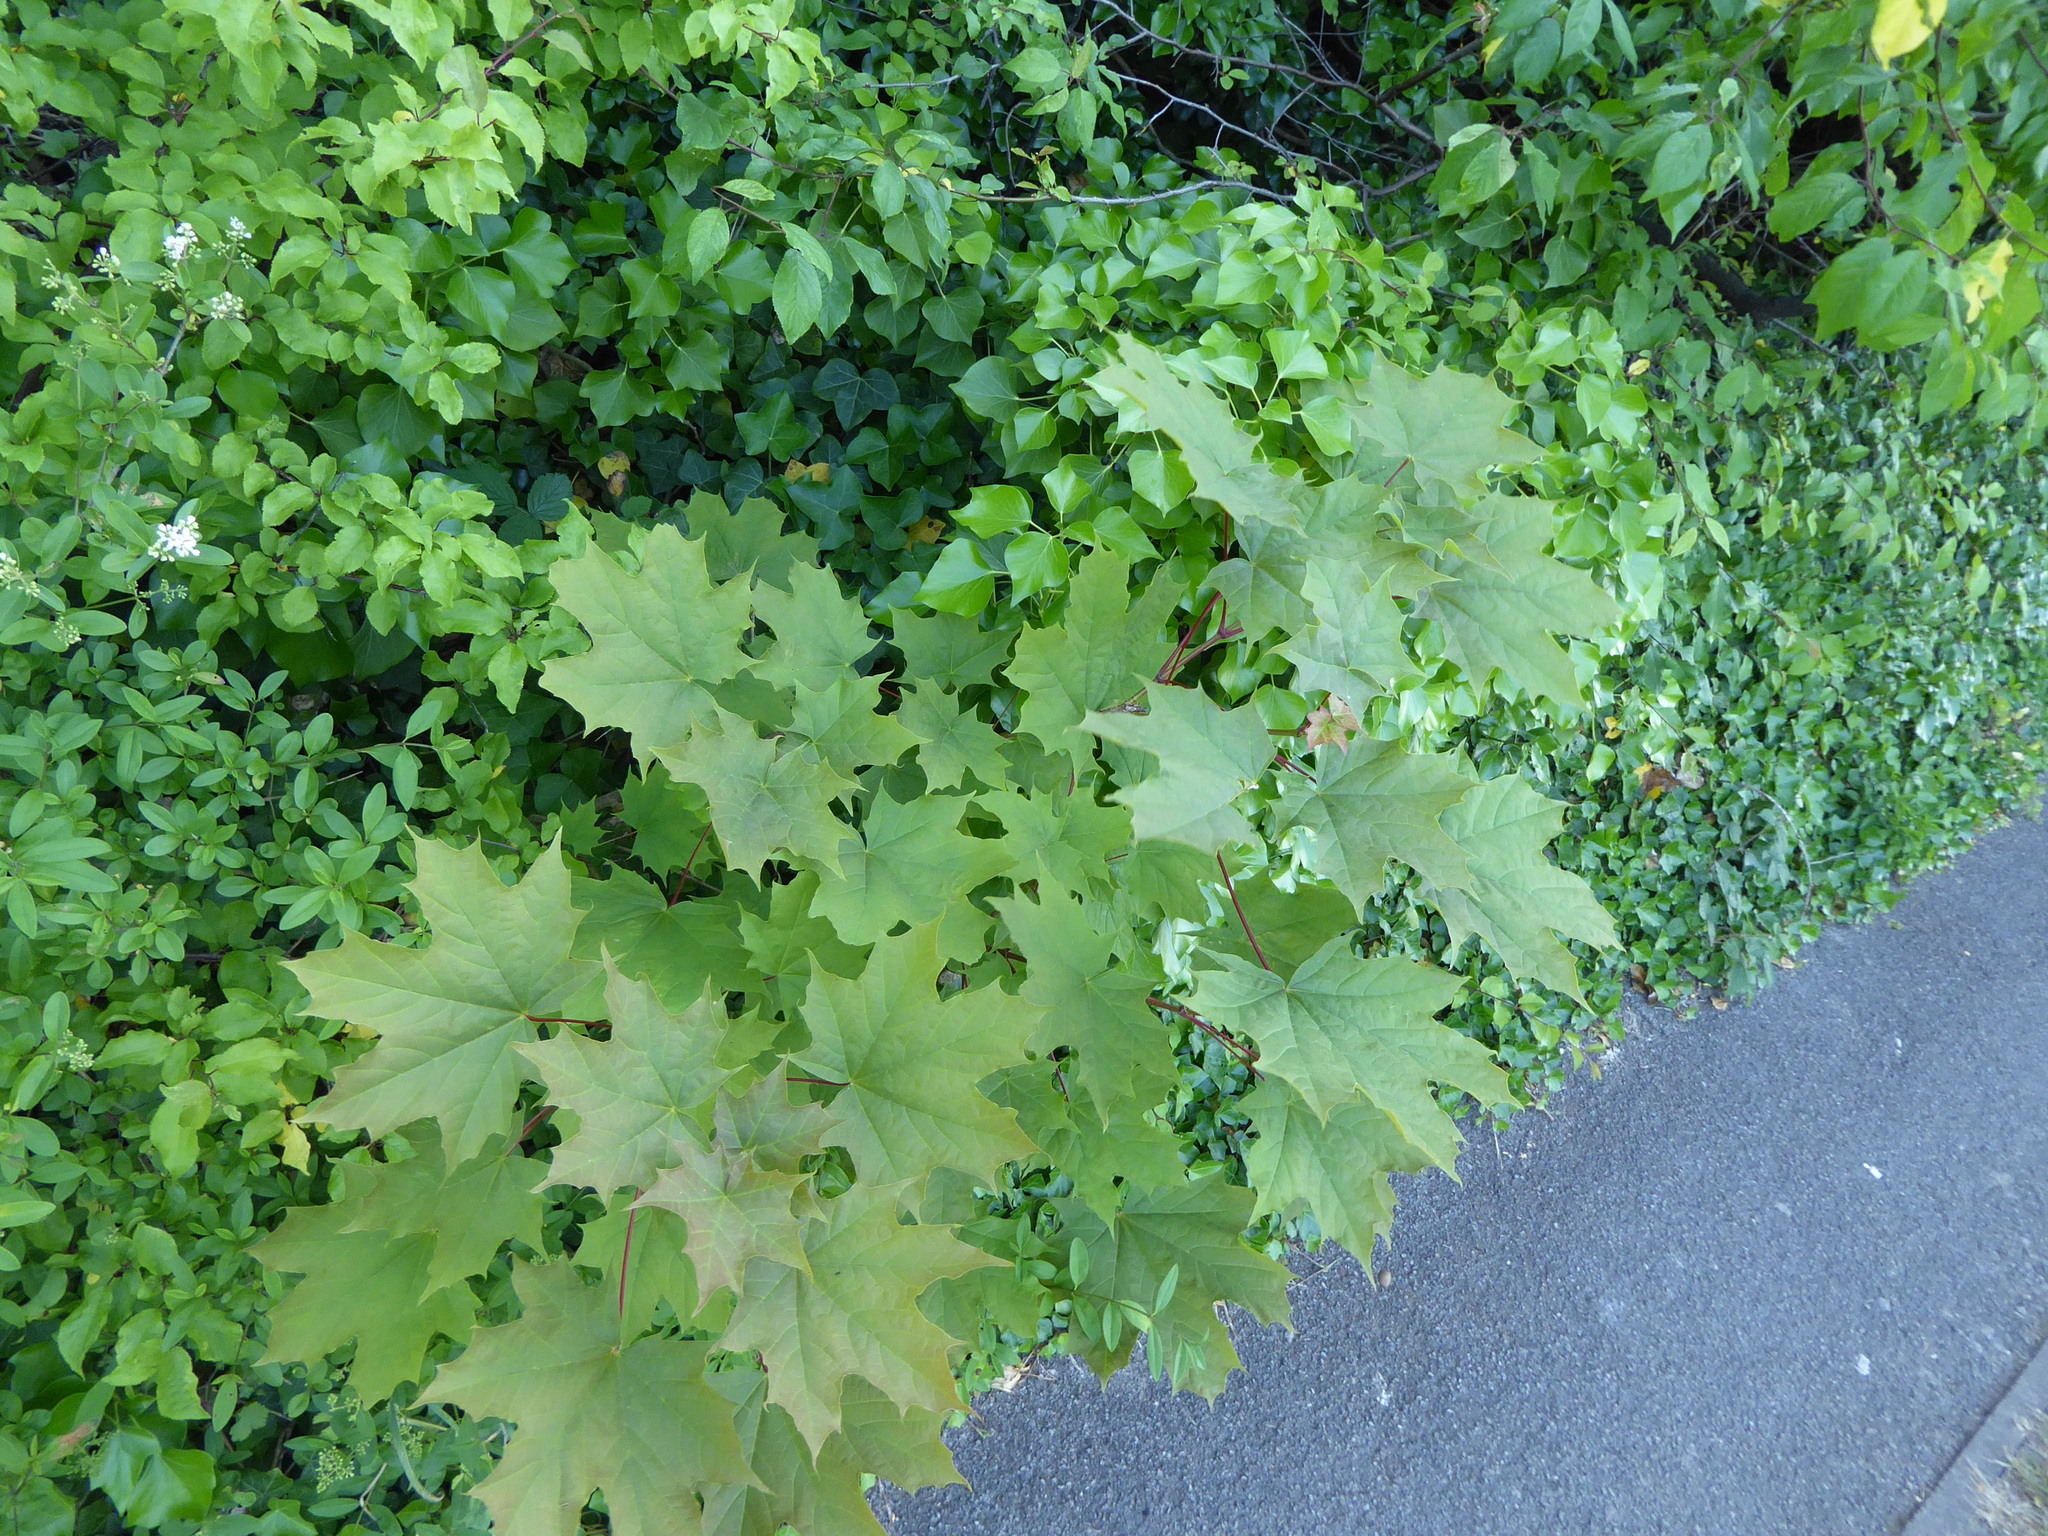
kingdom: Plantae
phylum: Tracheophyta
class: Magnoliopsida
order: Sapindales
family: Sapindaceae
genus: Acer
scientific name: Acer platanoides
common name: Norway maple
